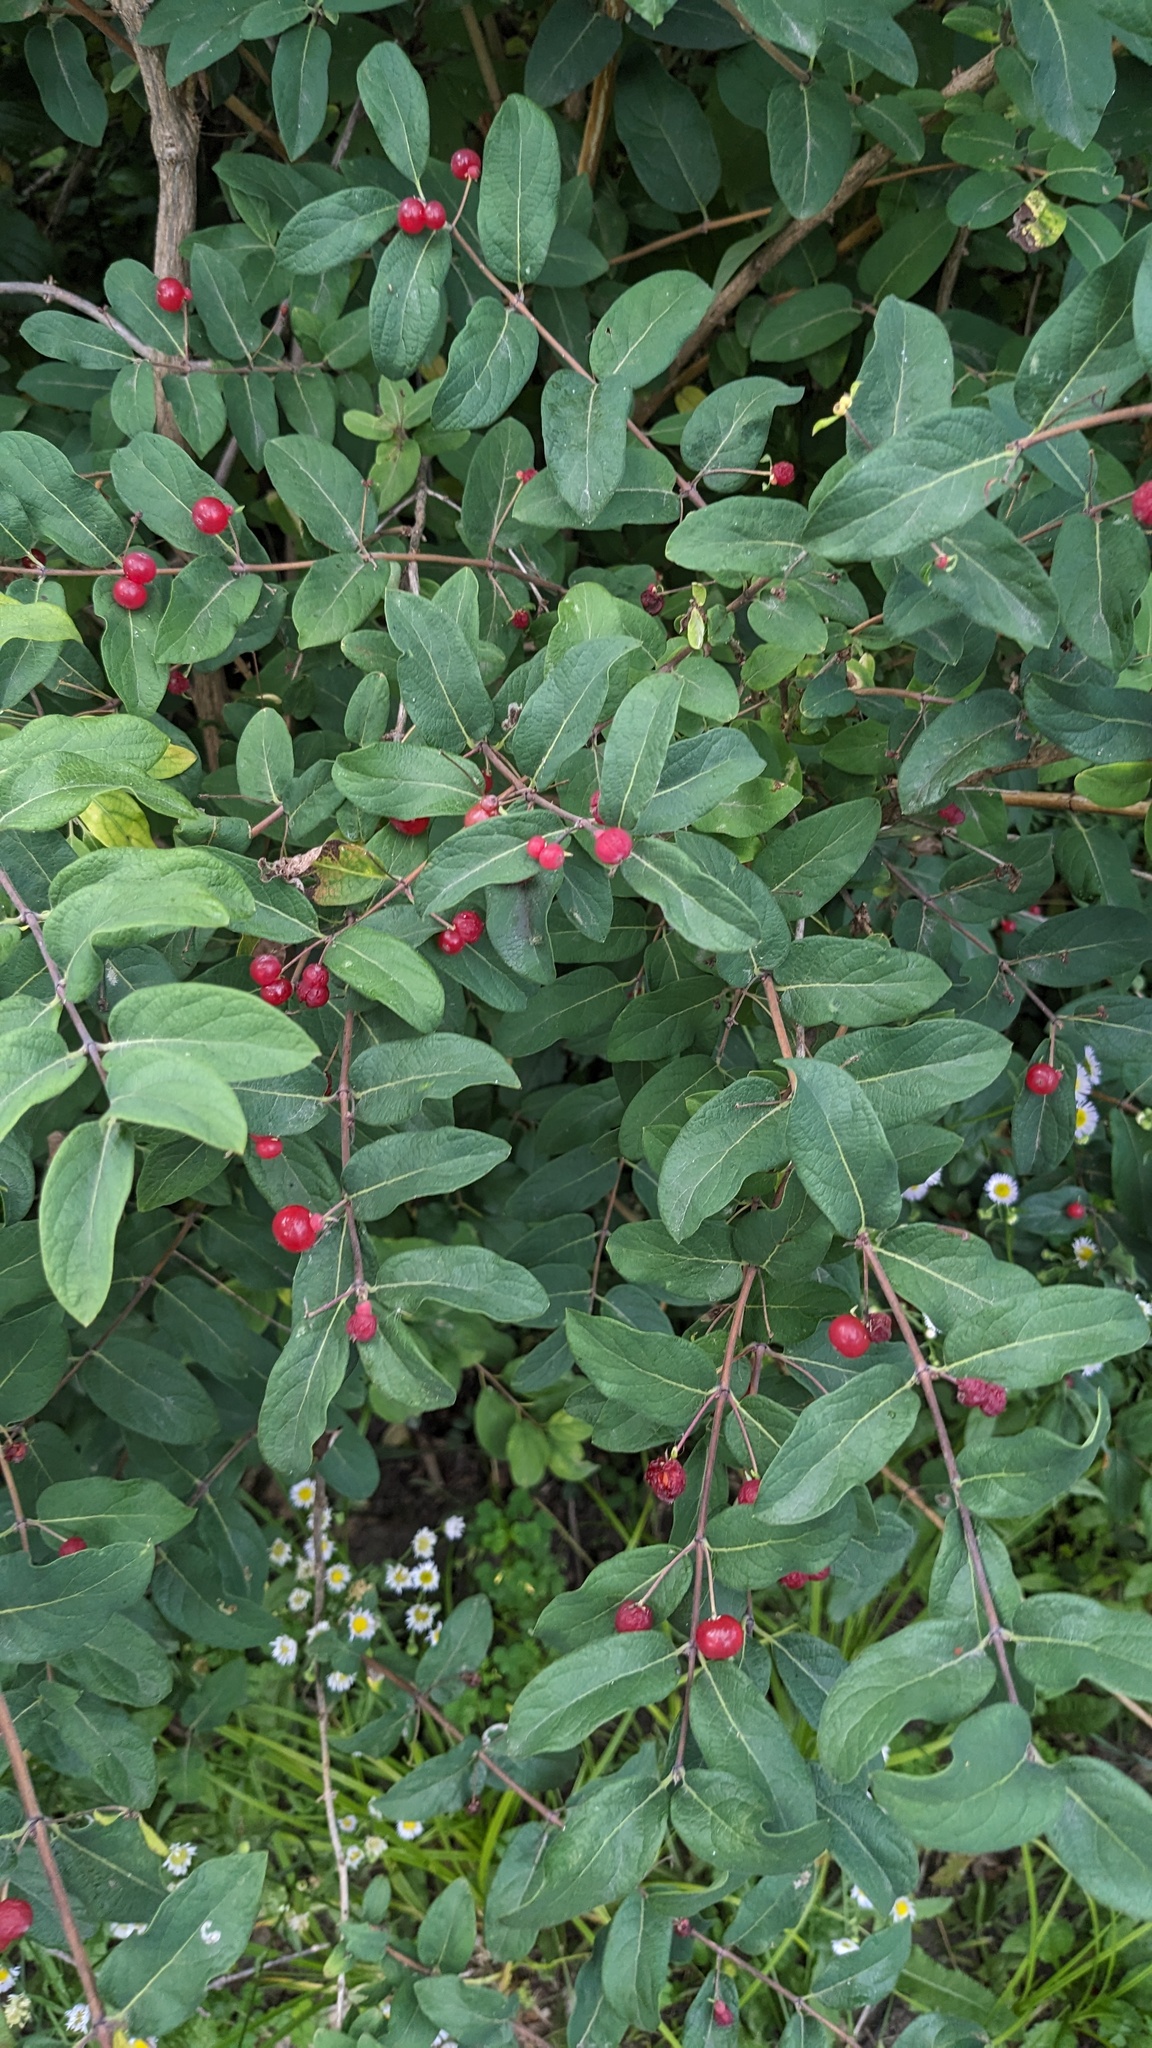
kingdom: Plantae
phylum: Tracheophyta
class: Magnoliopsida
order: Dipsacales
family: Caprifoliaceae
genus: Lonicera
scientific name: Lonicera
